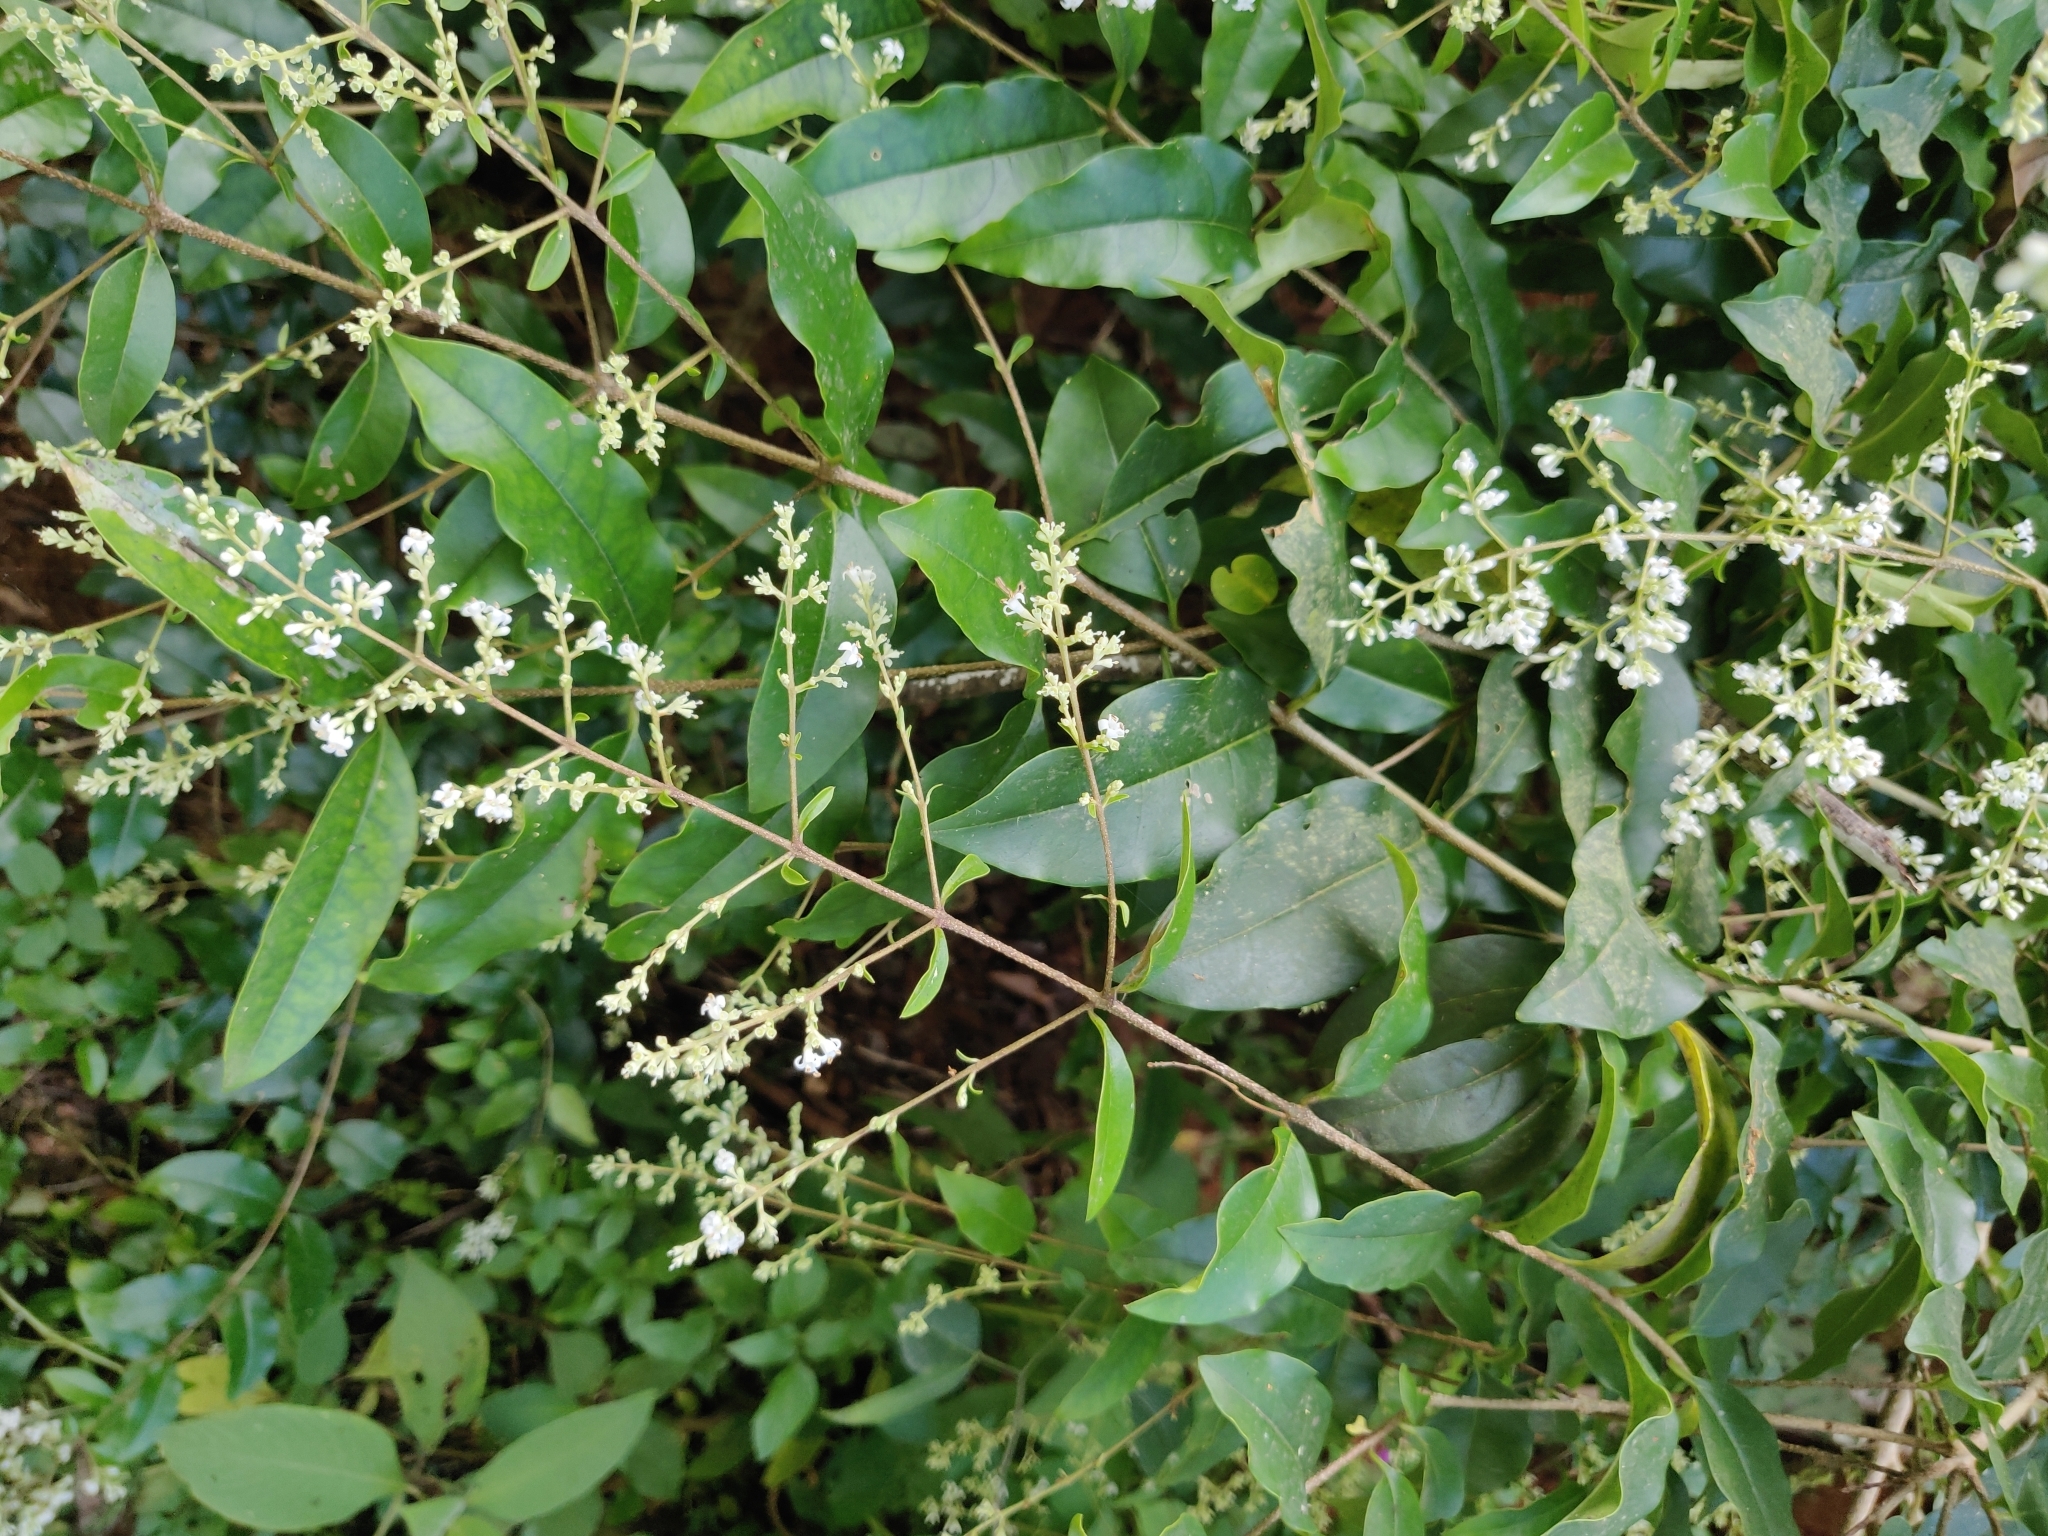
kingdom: Plantae
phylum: Tracheophyta
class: Magnoliopsida
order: Lamiales
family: Oleaceae
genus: Ligustrum
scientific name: Ligustrum robustum
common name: Tree privet
